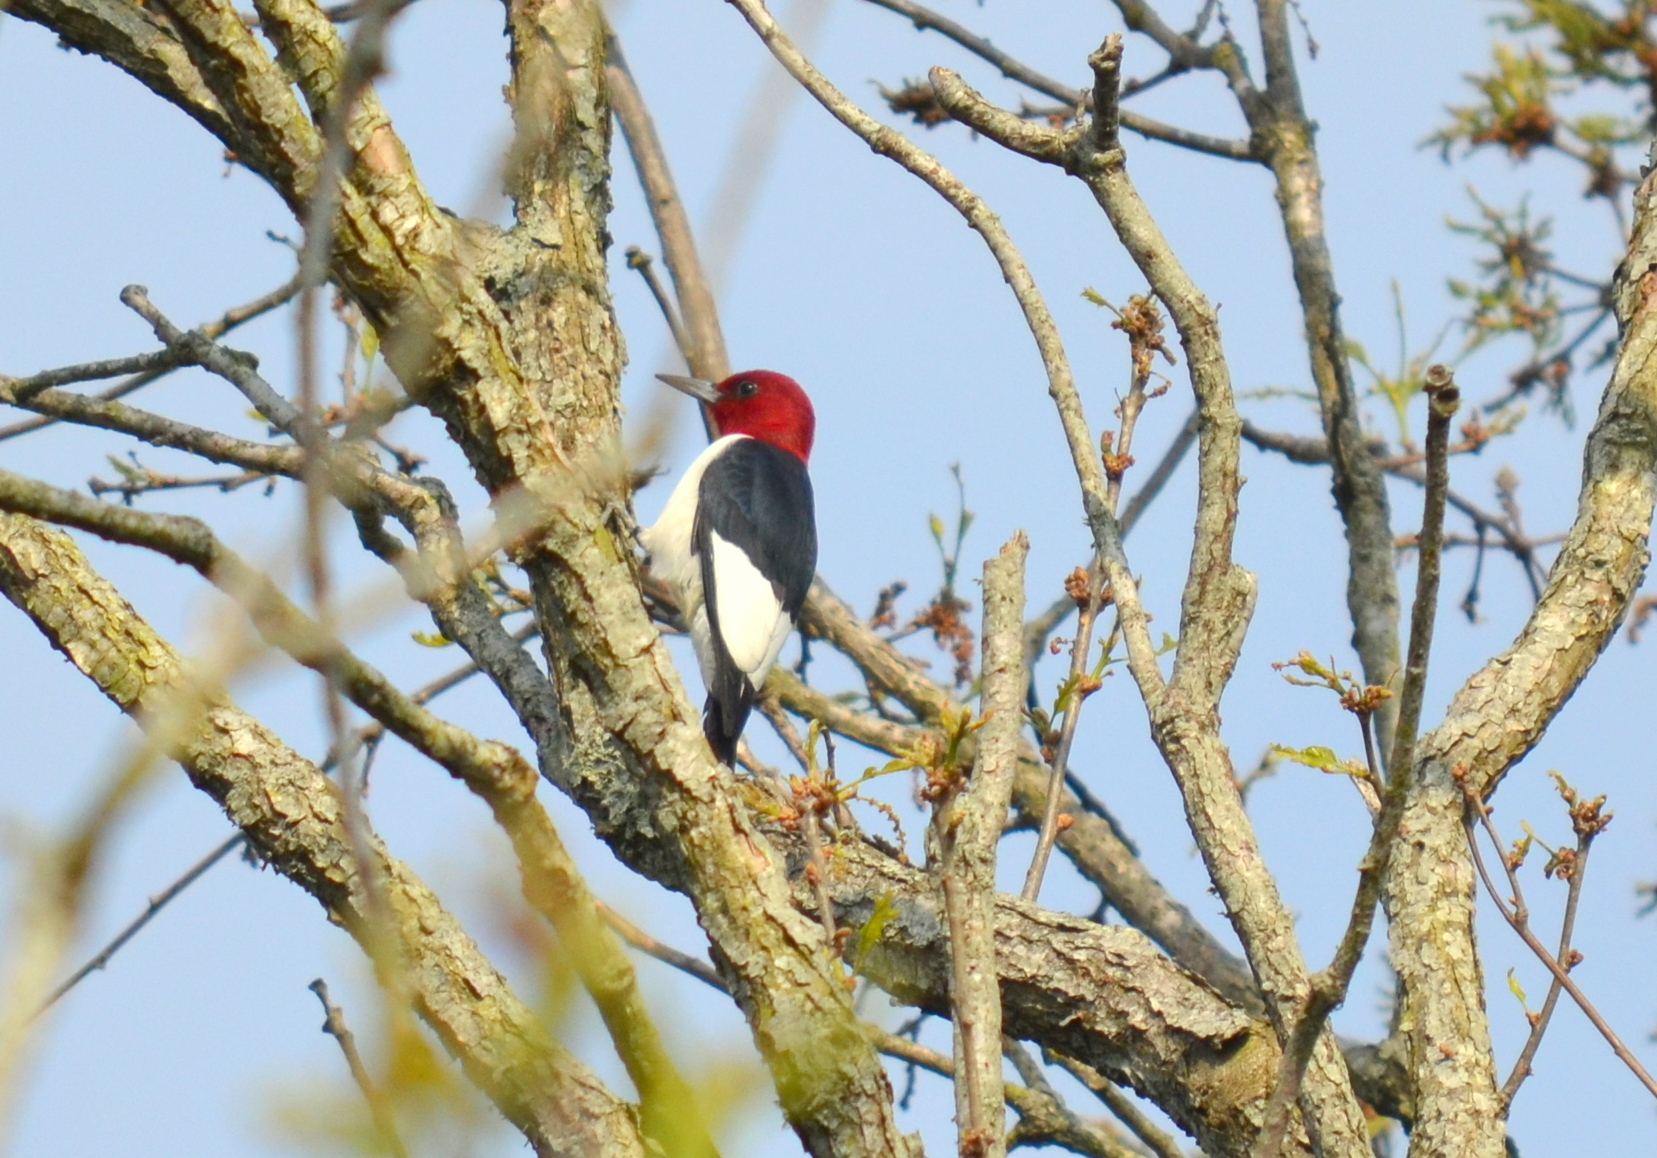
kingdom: Animalia
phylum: Chordata
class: Aves
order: Piciformes
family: Picidae
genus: Melanerpes
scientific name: Melanerpes erythrocephalus
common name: Red-headed woodpecker
